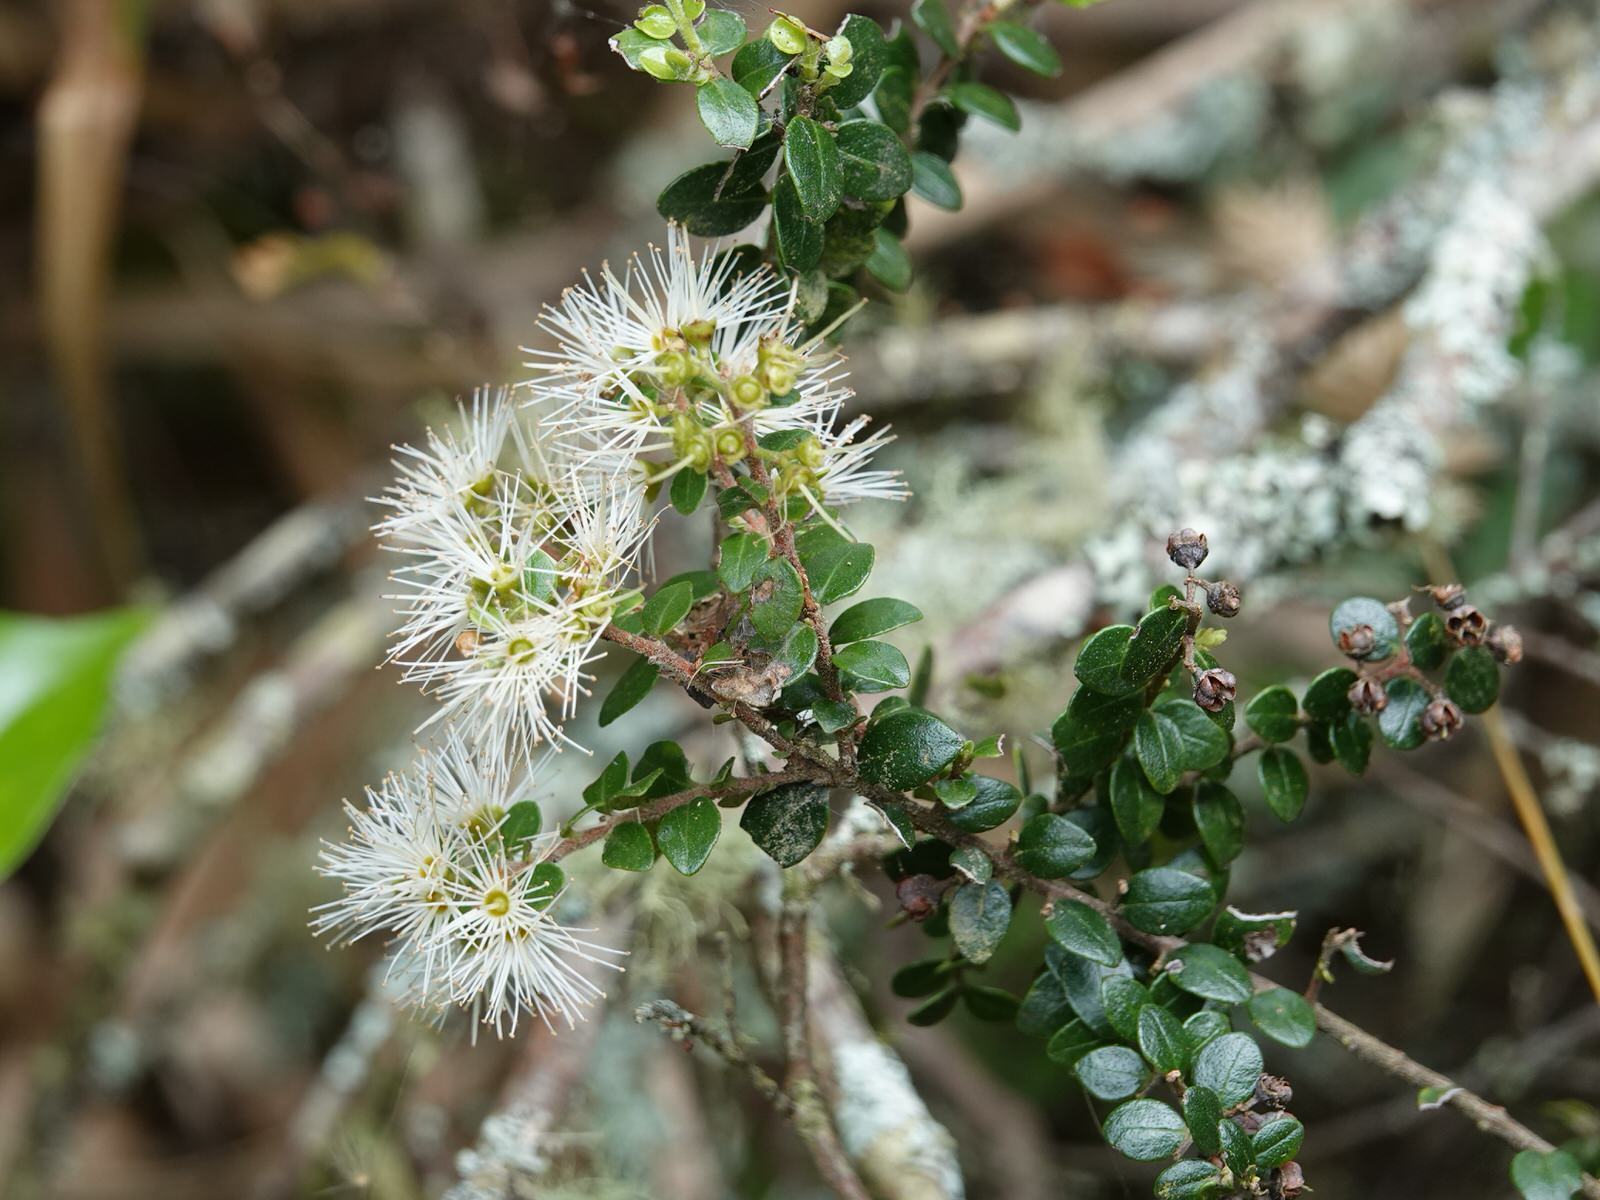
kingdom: Plantae
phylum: Tracheophyta
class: Magnoliopsida
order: Myrtales
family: Myrtaceae
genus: Metrosideros
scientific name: Metrosideros perforata
